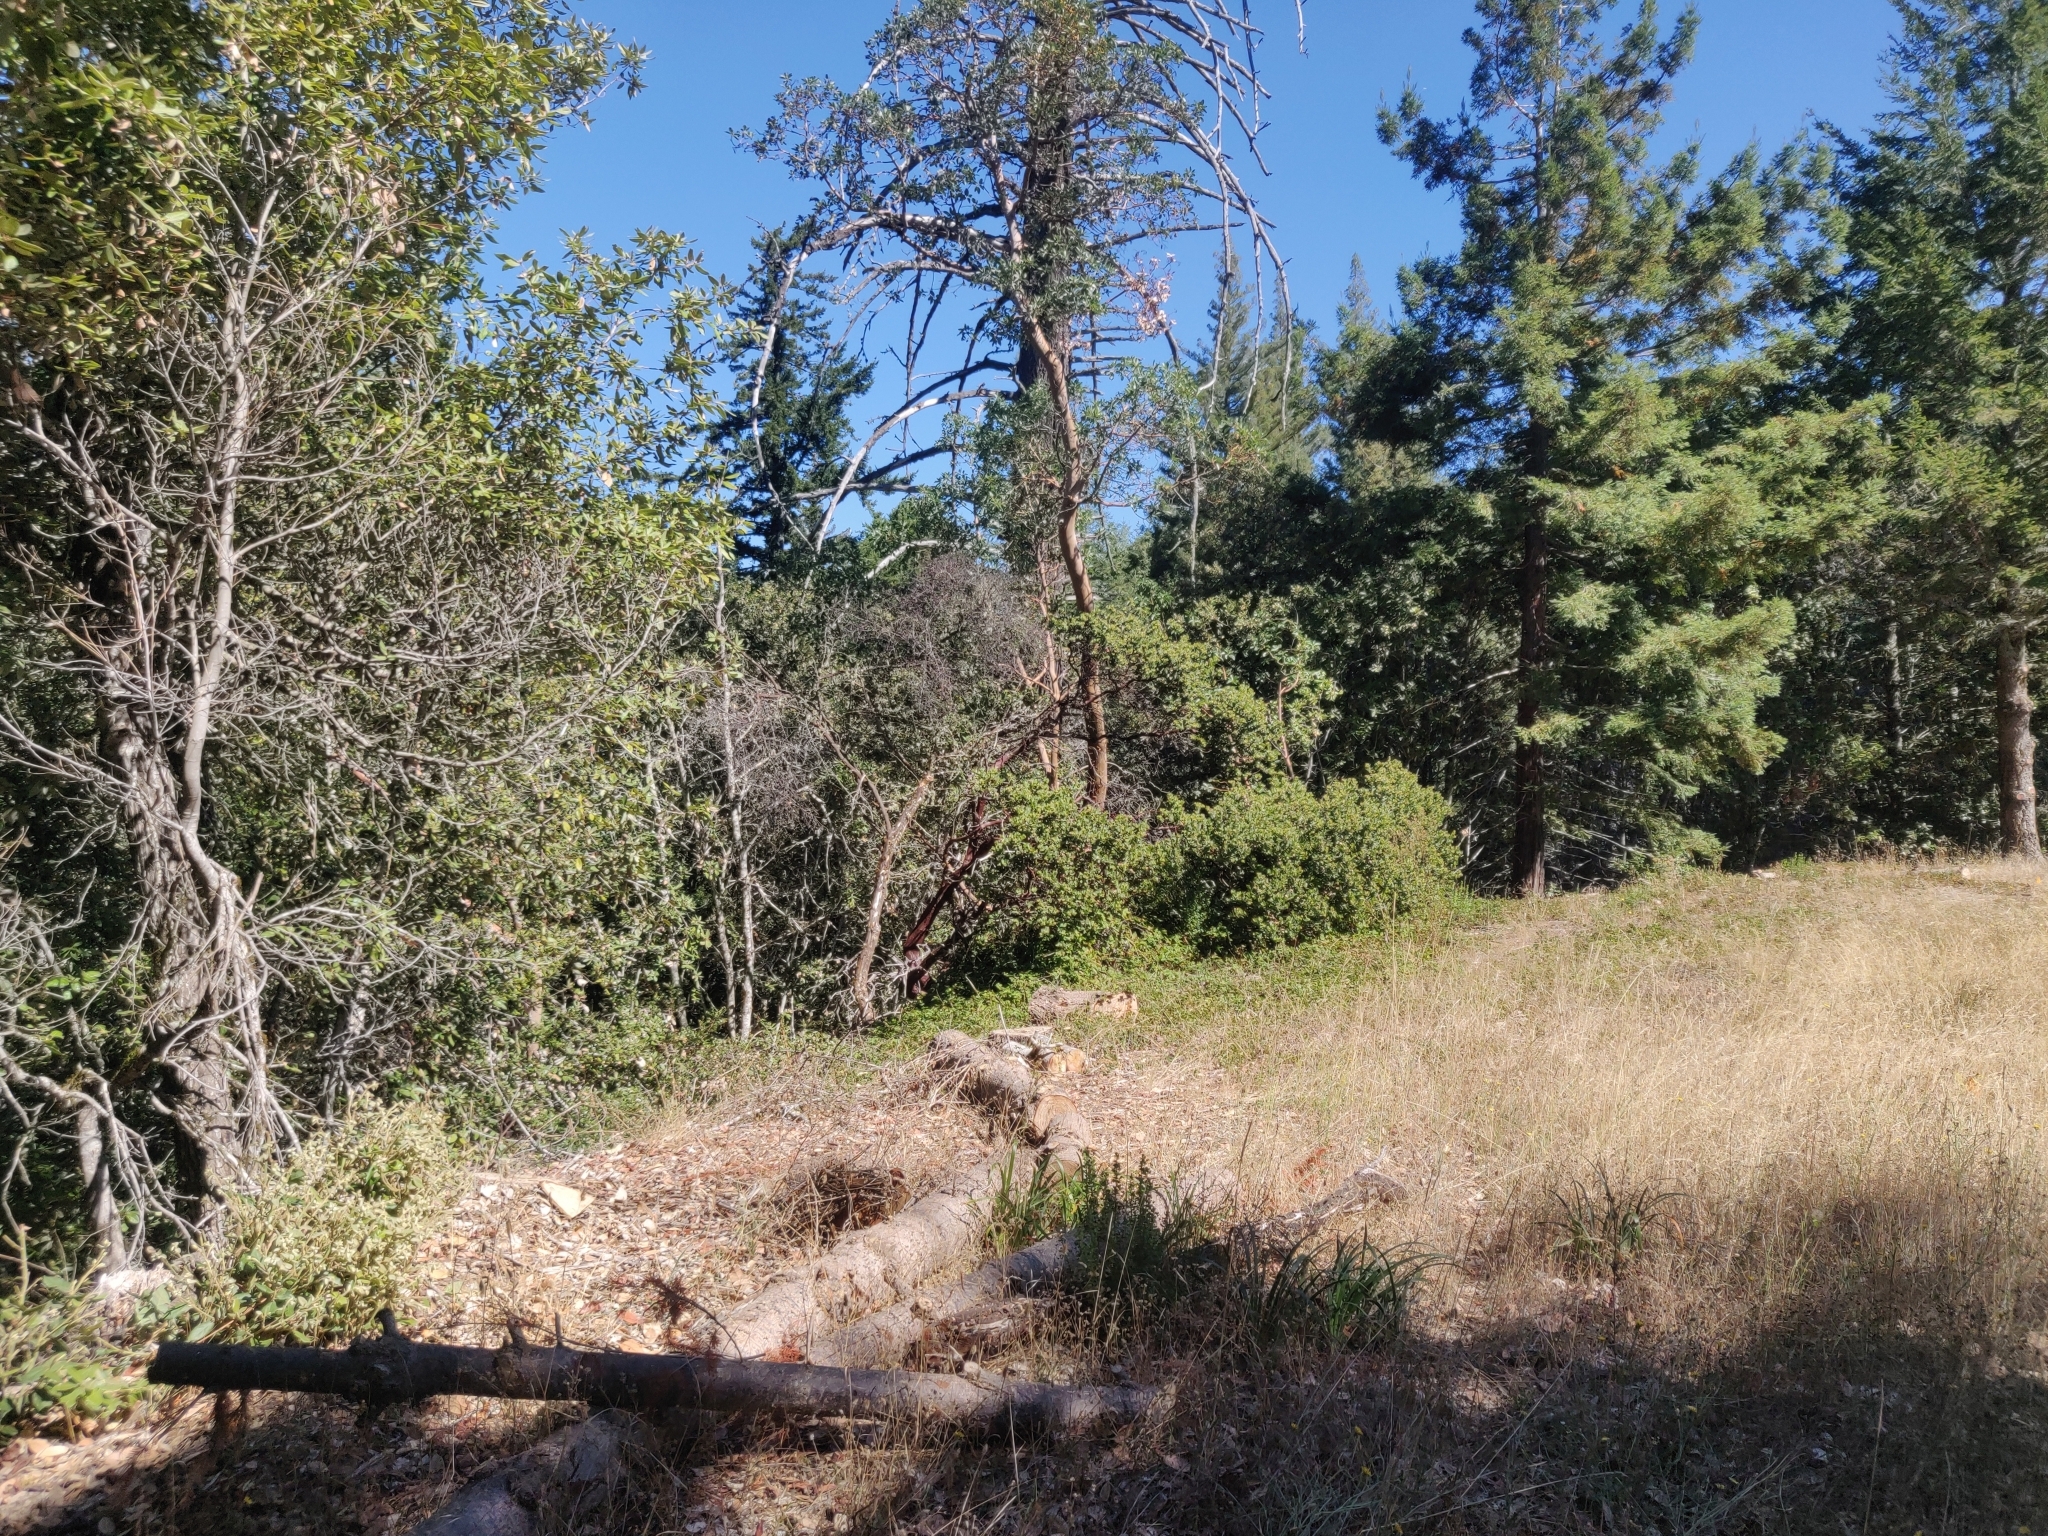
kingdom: Plantae
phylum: Tracheophyta
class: Magnoliopsida
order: Ericales
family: Ericaceae
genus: Arctostaphylos
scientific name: Arctostaphylos regismontana
